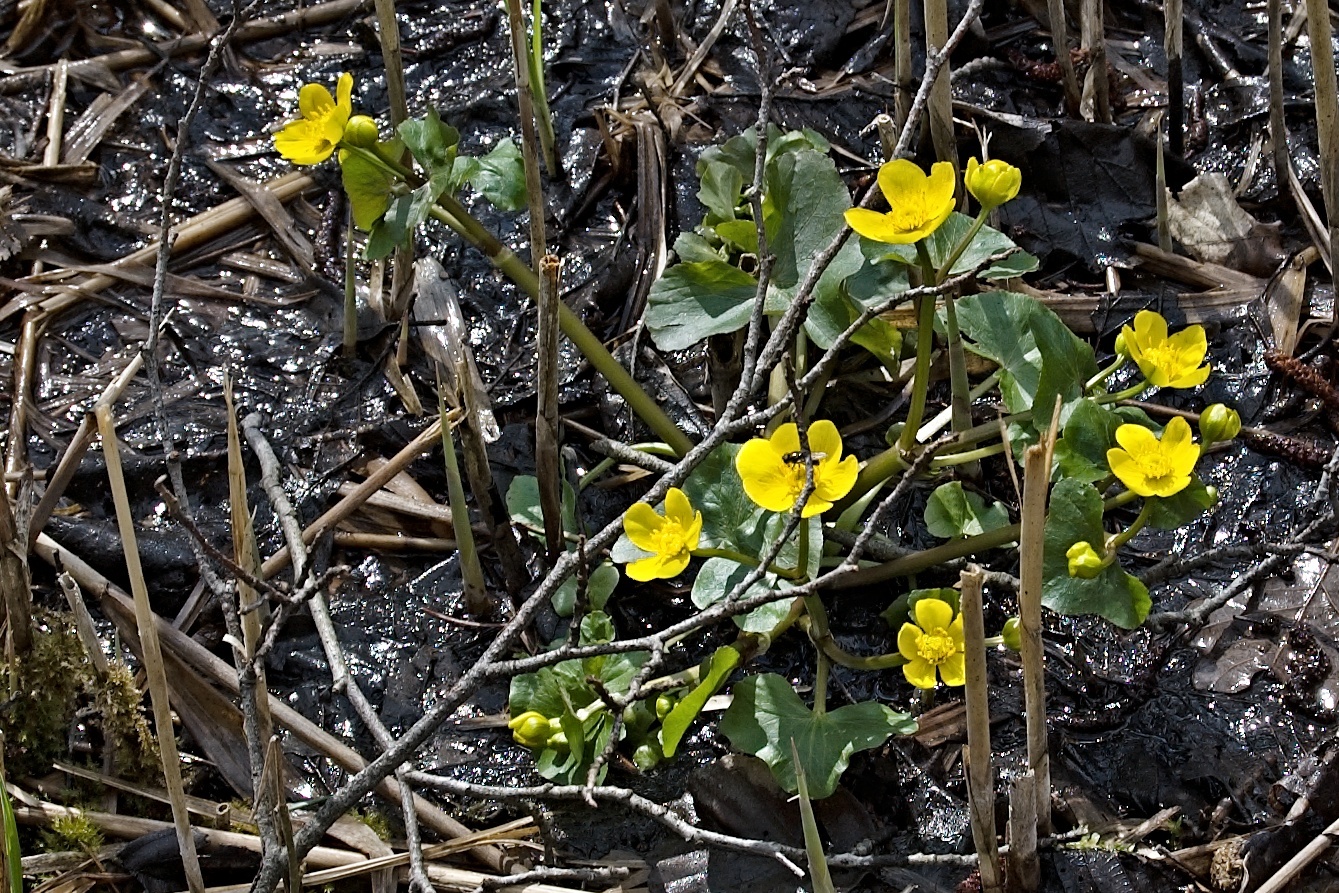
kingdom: Plantae
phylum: Tracheophyta
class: Magnoliopsida
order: Ranunculales
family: Ranunculaceae
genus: Caltha
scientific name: Caltha palustris
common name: Marsh marigold
